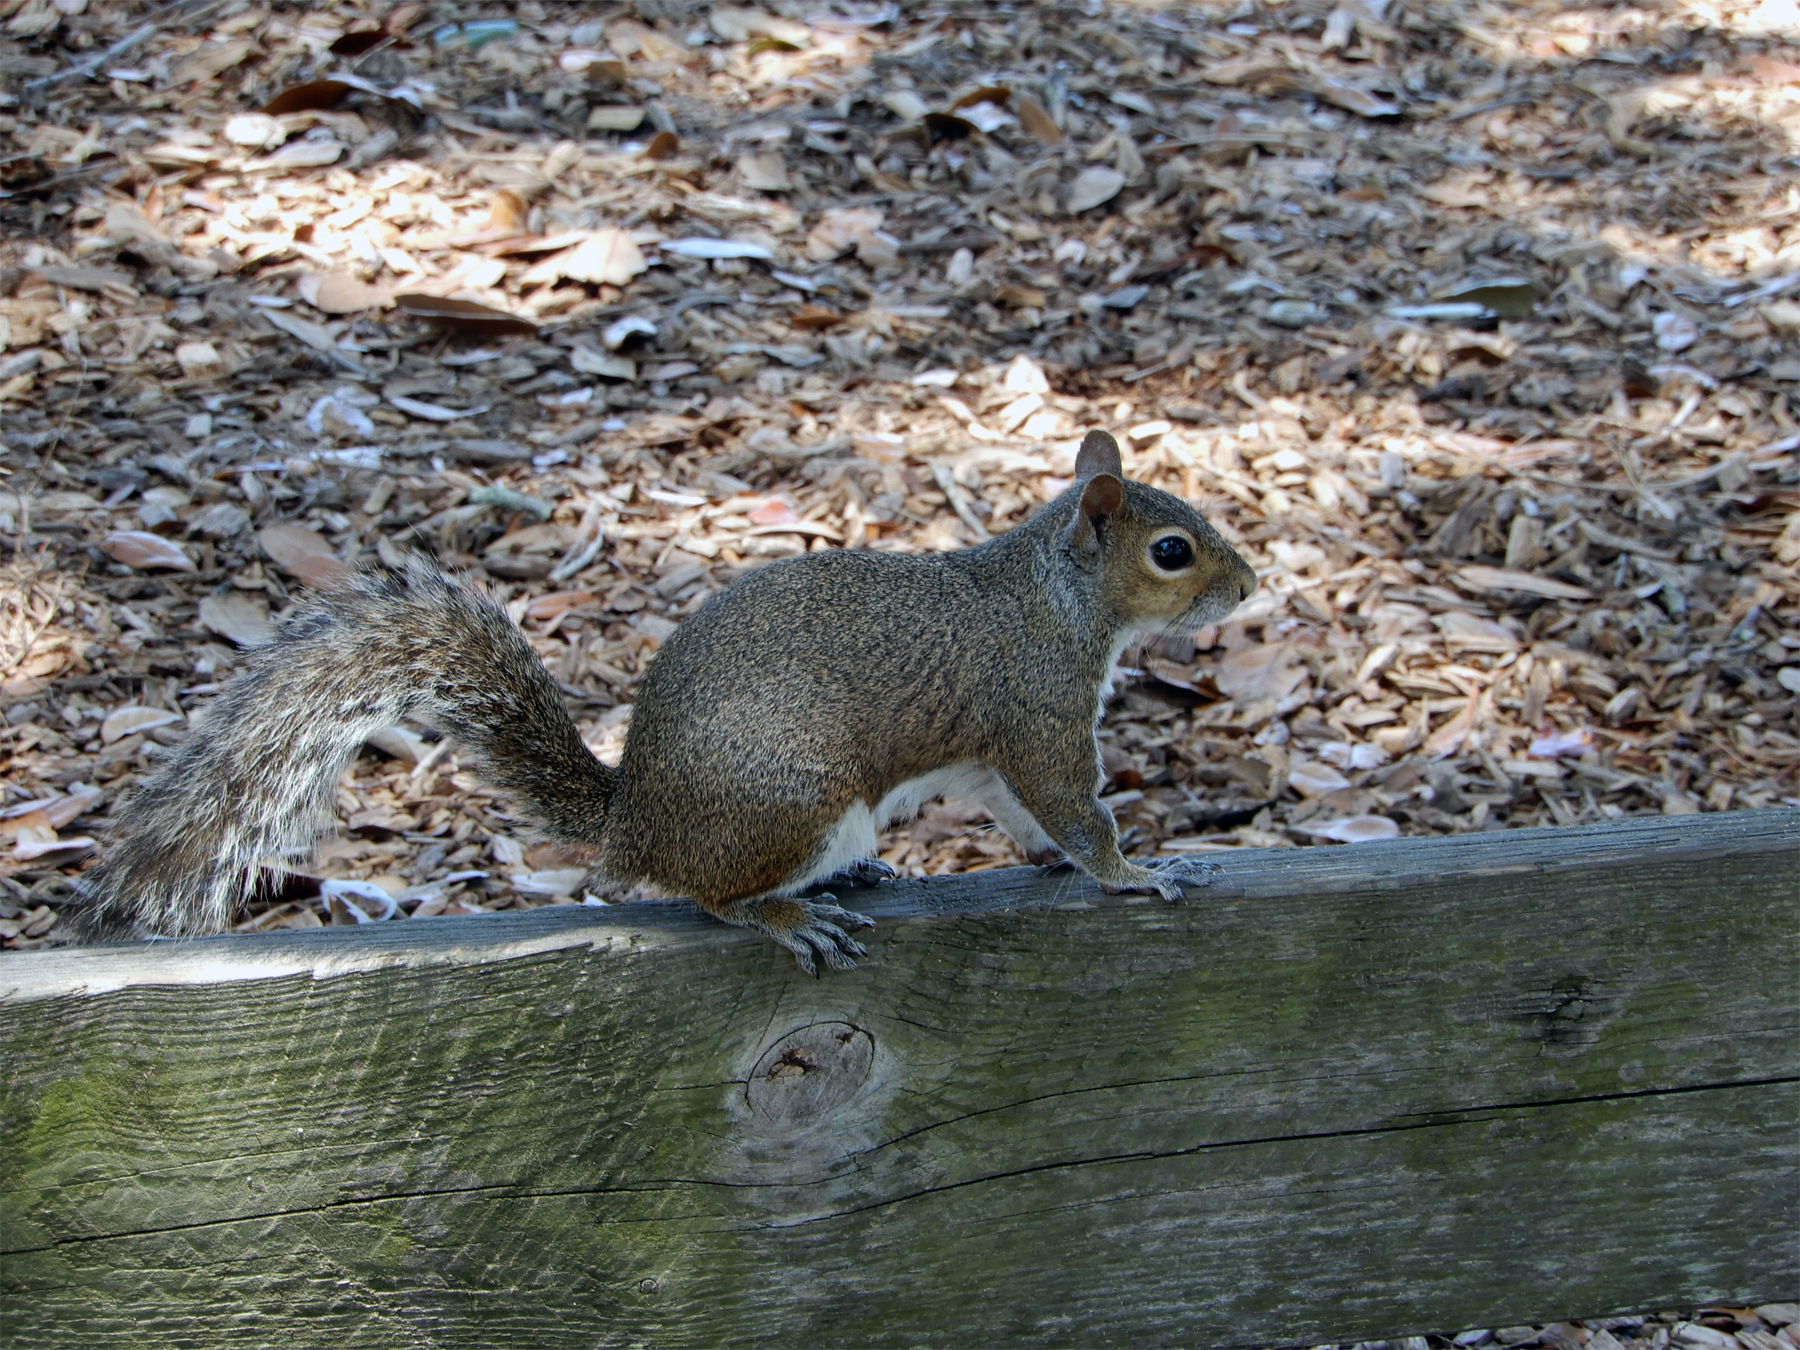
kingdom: Animalia
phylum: Chordata
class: Mammalia
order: Rodentia
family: Sciuridae
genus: Sciurus
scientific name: Sciurus carolinensis
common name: Eastern gray squirrel
